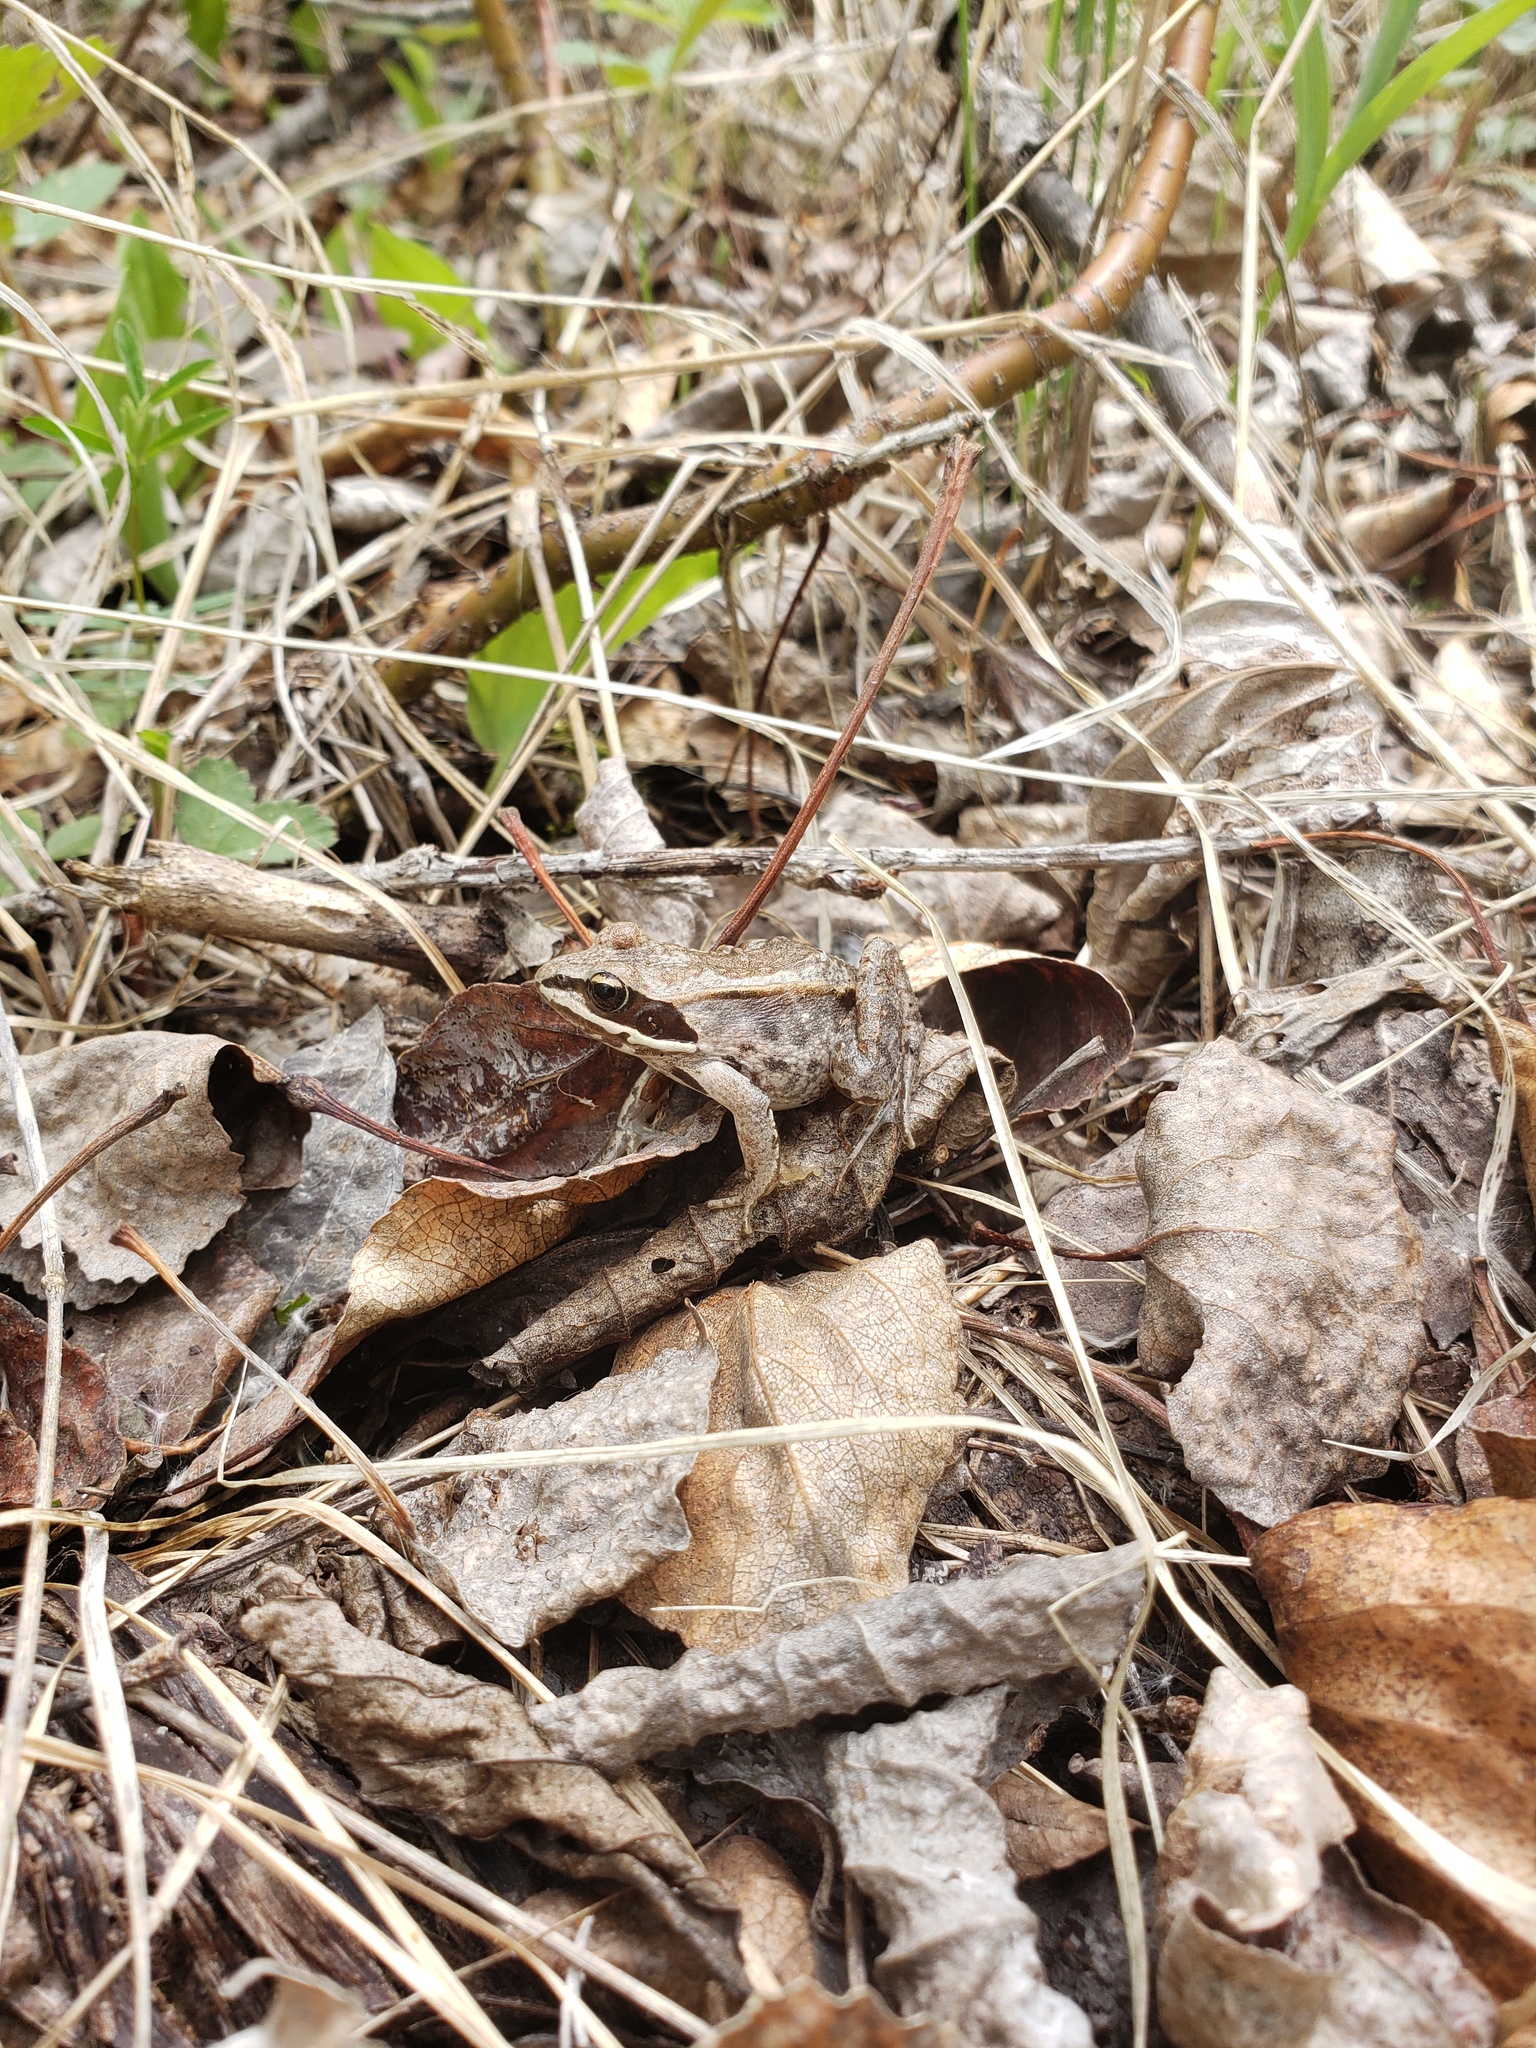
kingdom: Animalia
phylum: Chordata
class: Amphibia
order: Anura
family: Ranidae
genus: Lithobates
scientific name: Lithobates sylvaticus
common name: Wood frog
